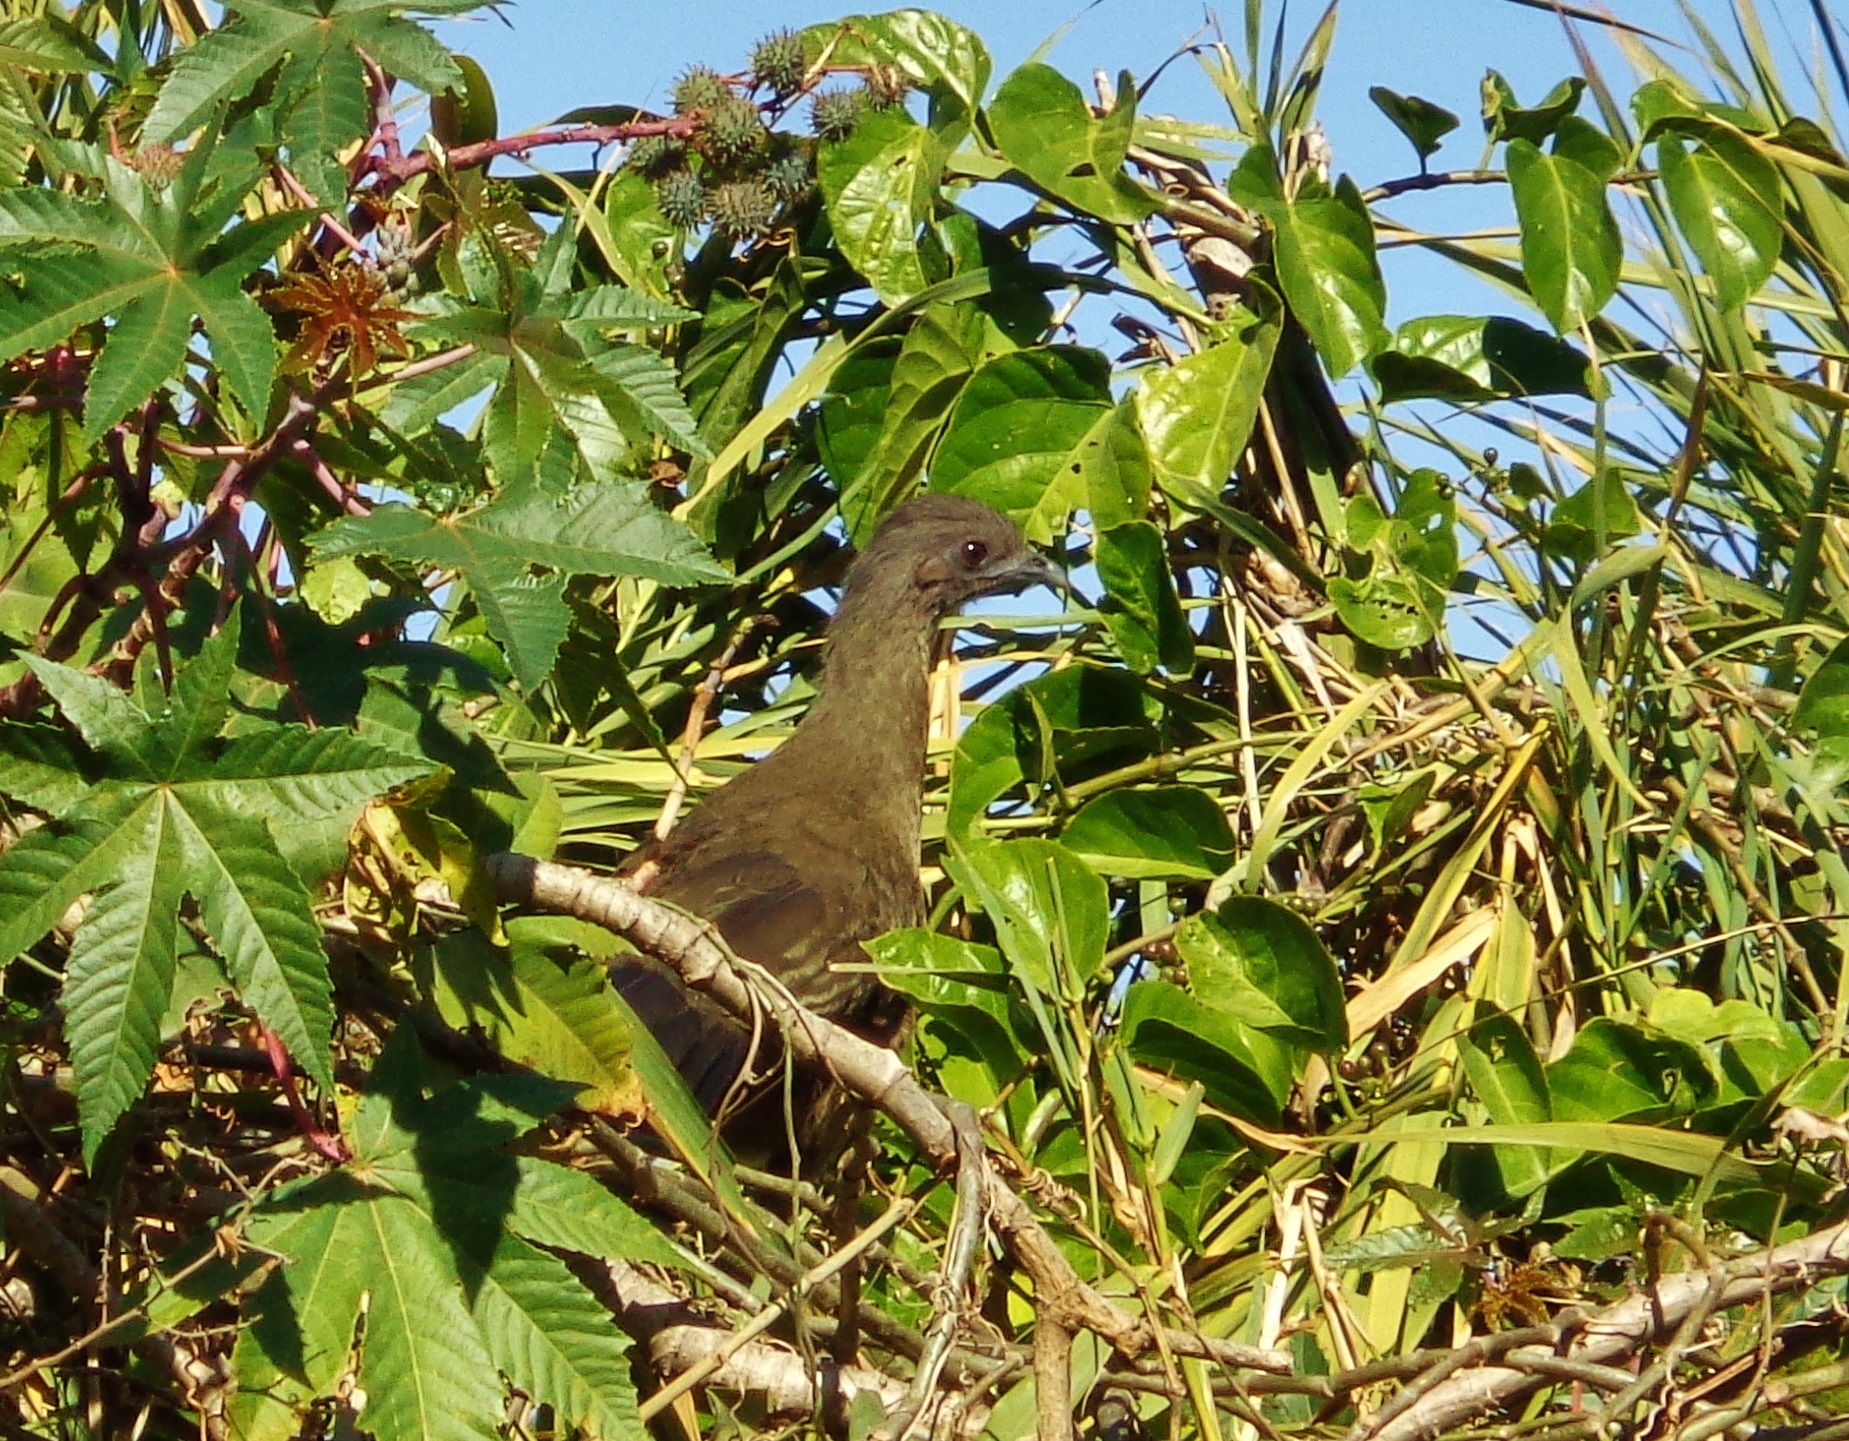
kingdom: Animalia
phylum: Chordata
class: Aves
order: Galliformes
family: Cracidae
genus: Ortalis
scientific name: Ortalis vetula
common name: Plain chachalaca
